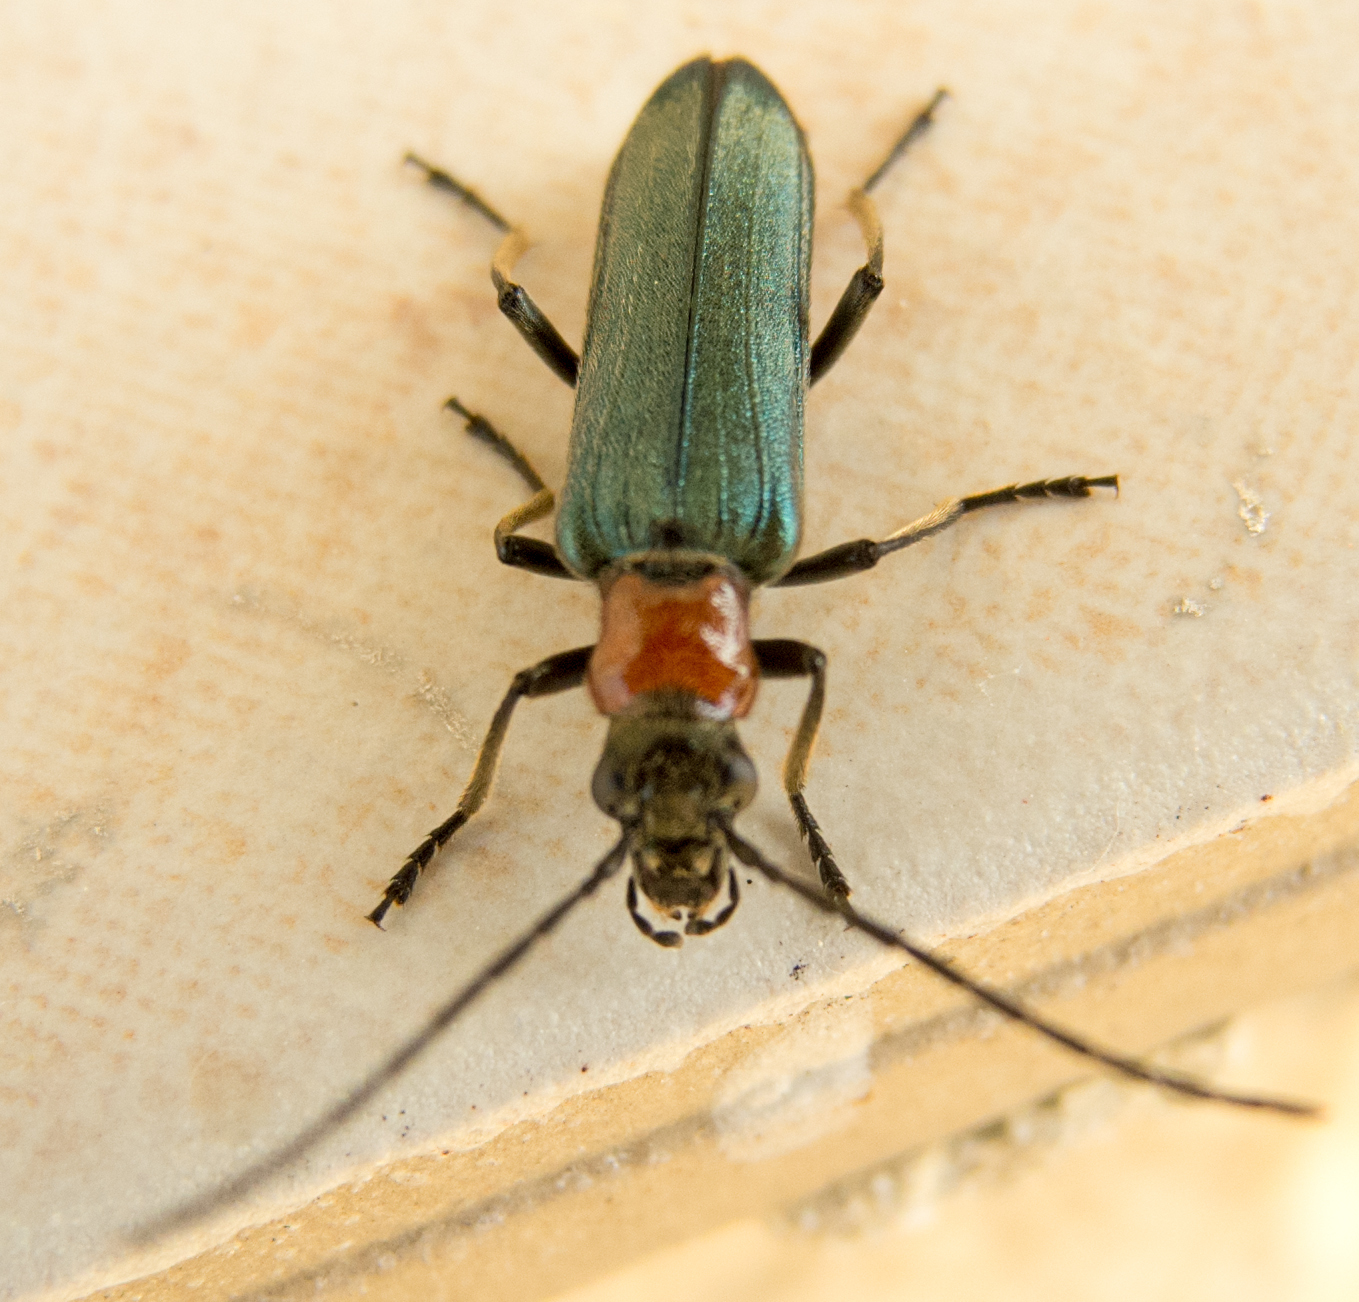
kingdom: Animalia
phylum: Arthropoda
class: Insecta
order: Coleoptera
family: Oedemeridae
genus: Anogcodes
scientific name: Anogcodes seladonius
